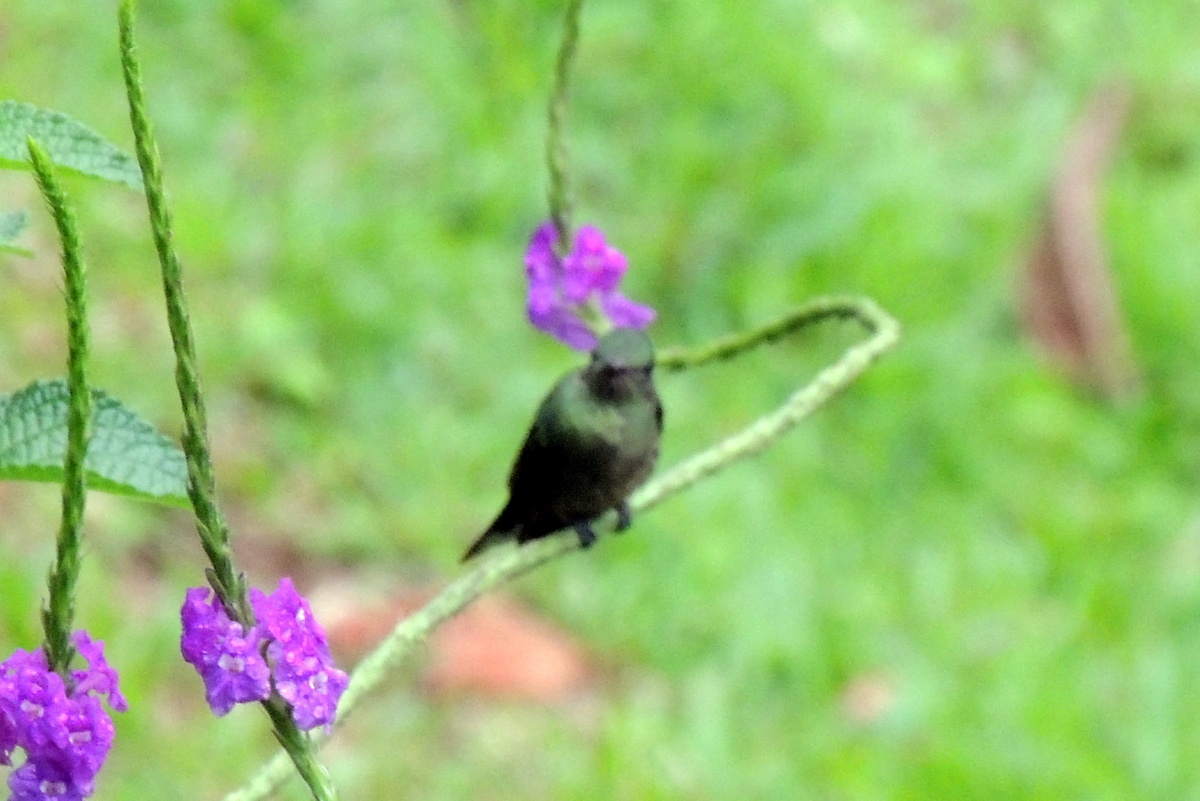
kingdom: Animalia
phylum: Chordata
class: Aves
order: Apodiformes
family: Trochilidae
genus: Phaeochroa
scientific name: Phaeochroa cuvierii
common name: Scaly-breasted hummingbird
